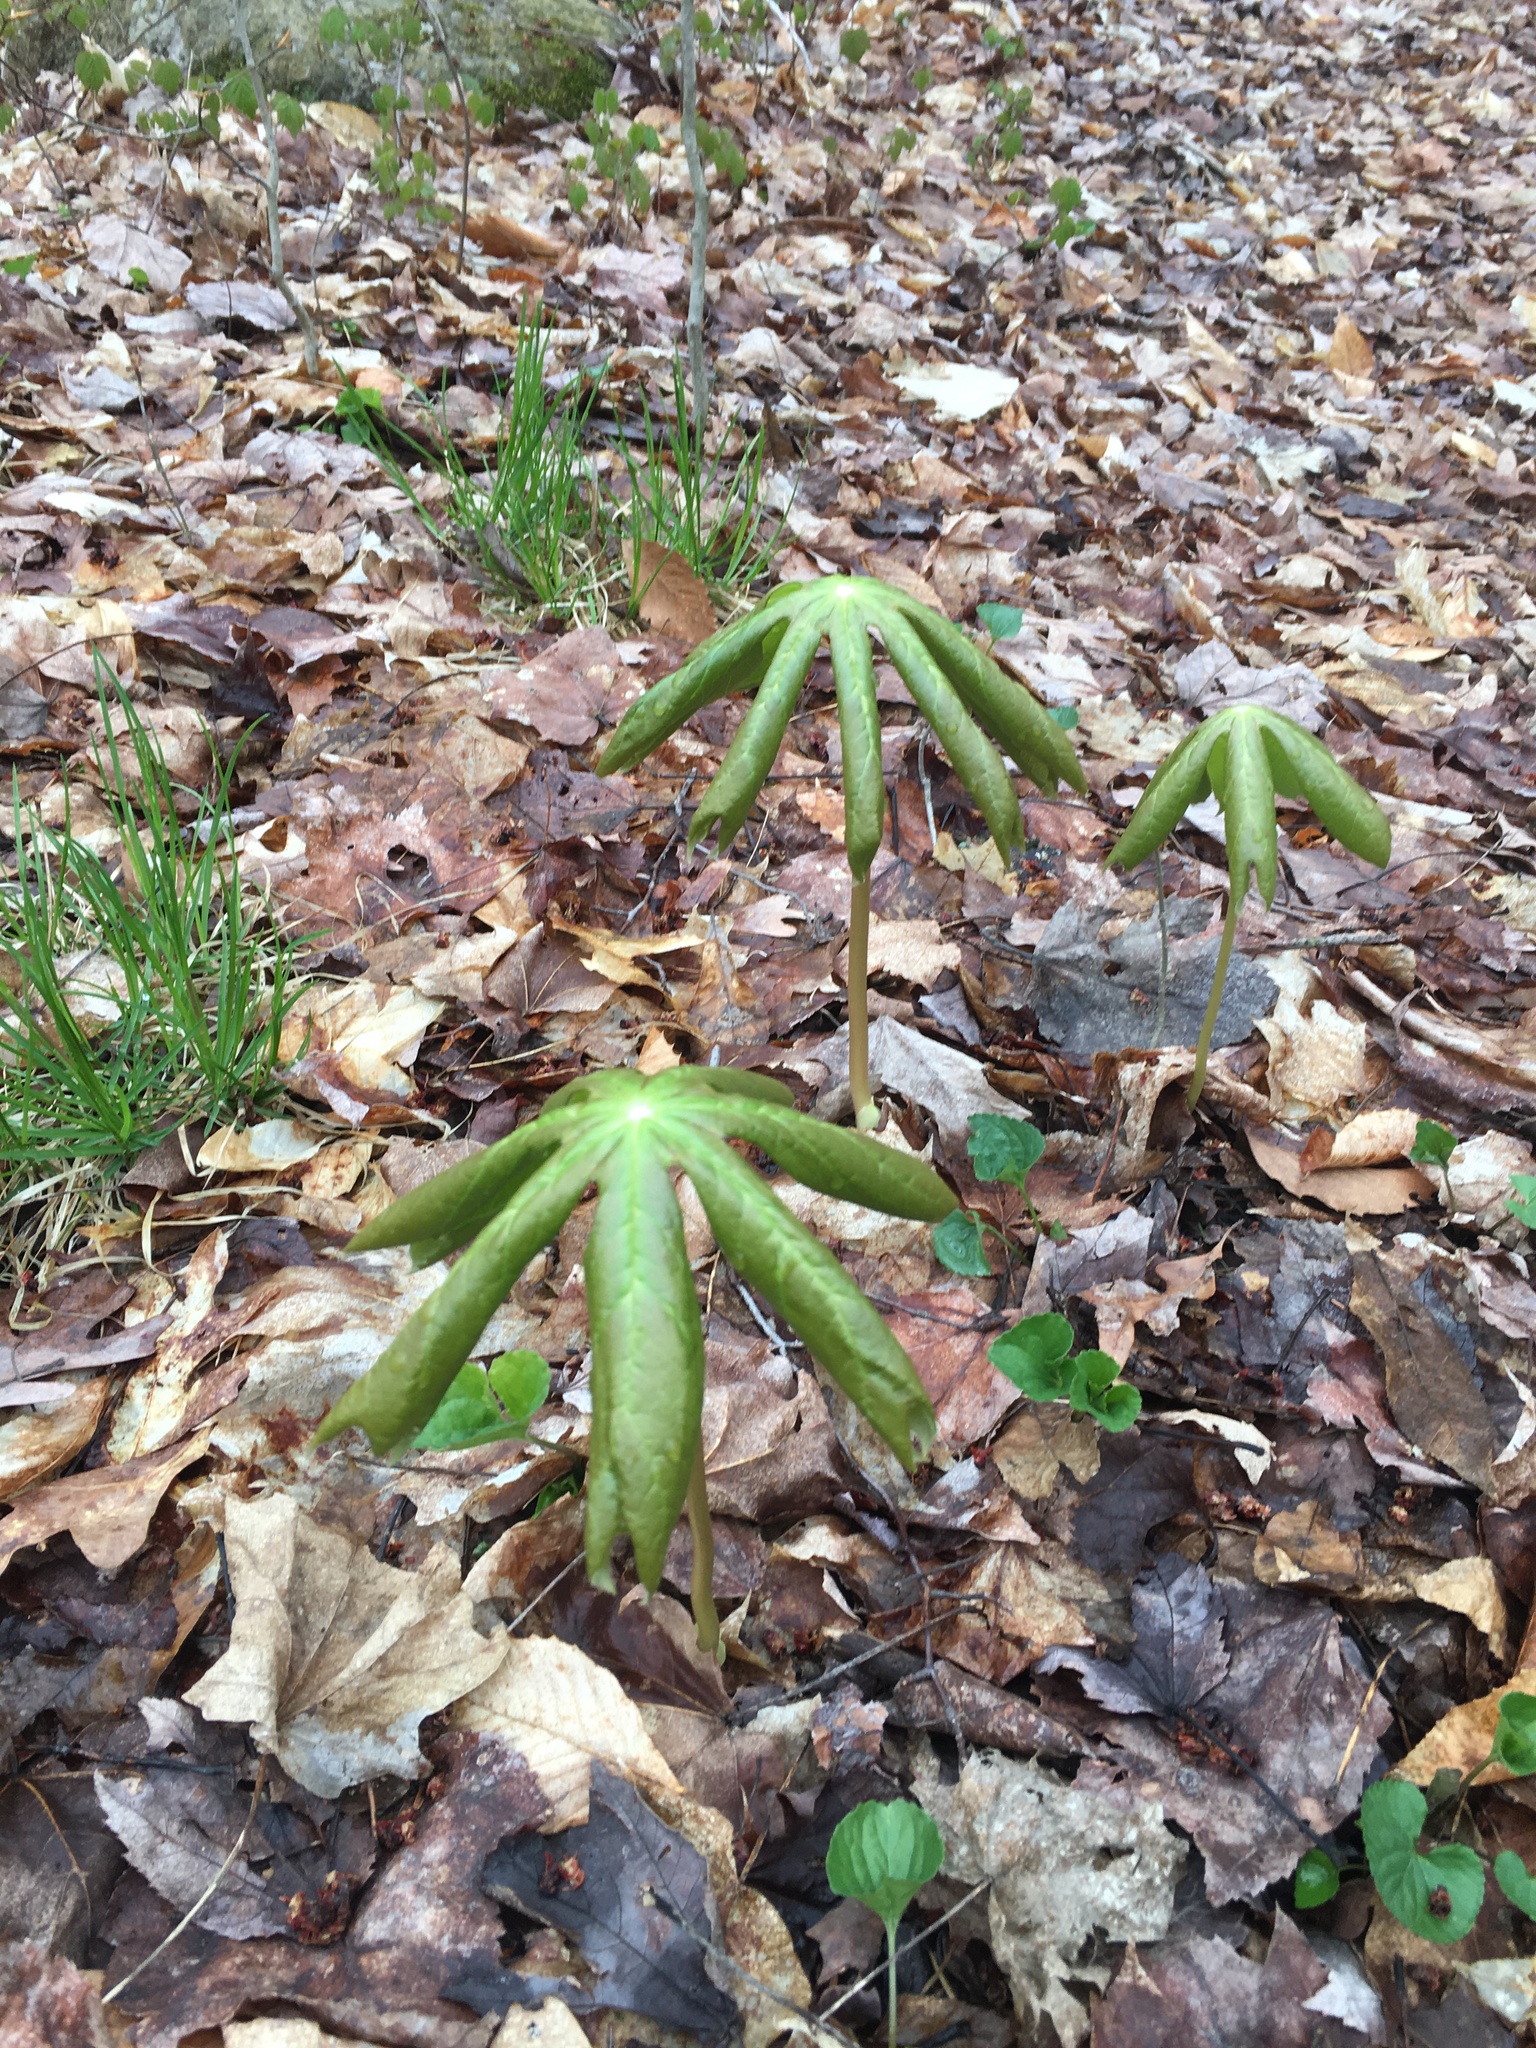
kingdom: Plantae
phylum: Tracheophyta
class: Magnoliopsida
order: Ranunculales
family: Berberidaceae
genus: Podophyllum
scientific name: Podophyllum peltatum
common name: Wild mandrake
